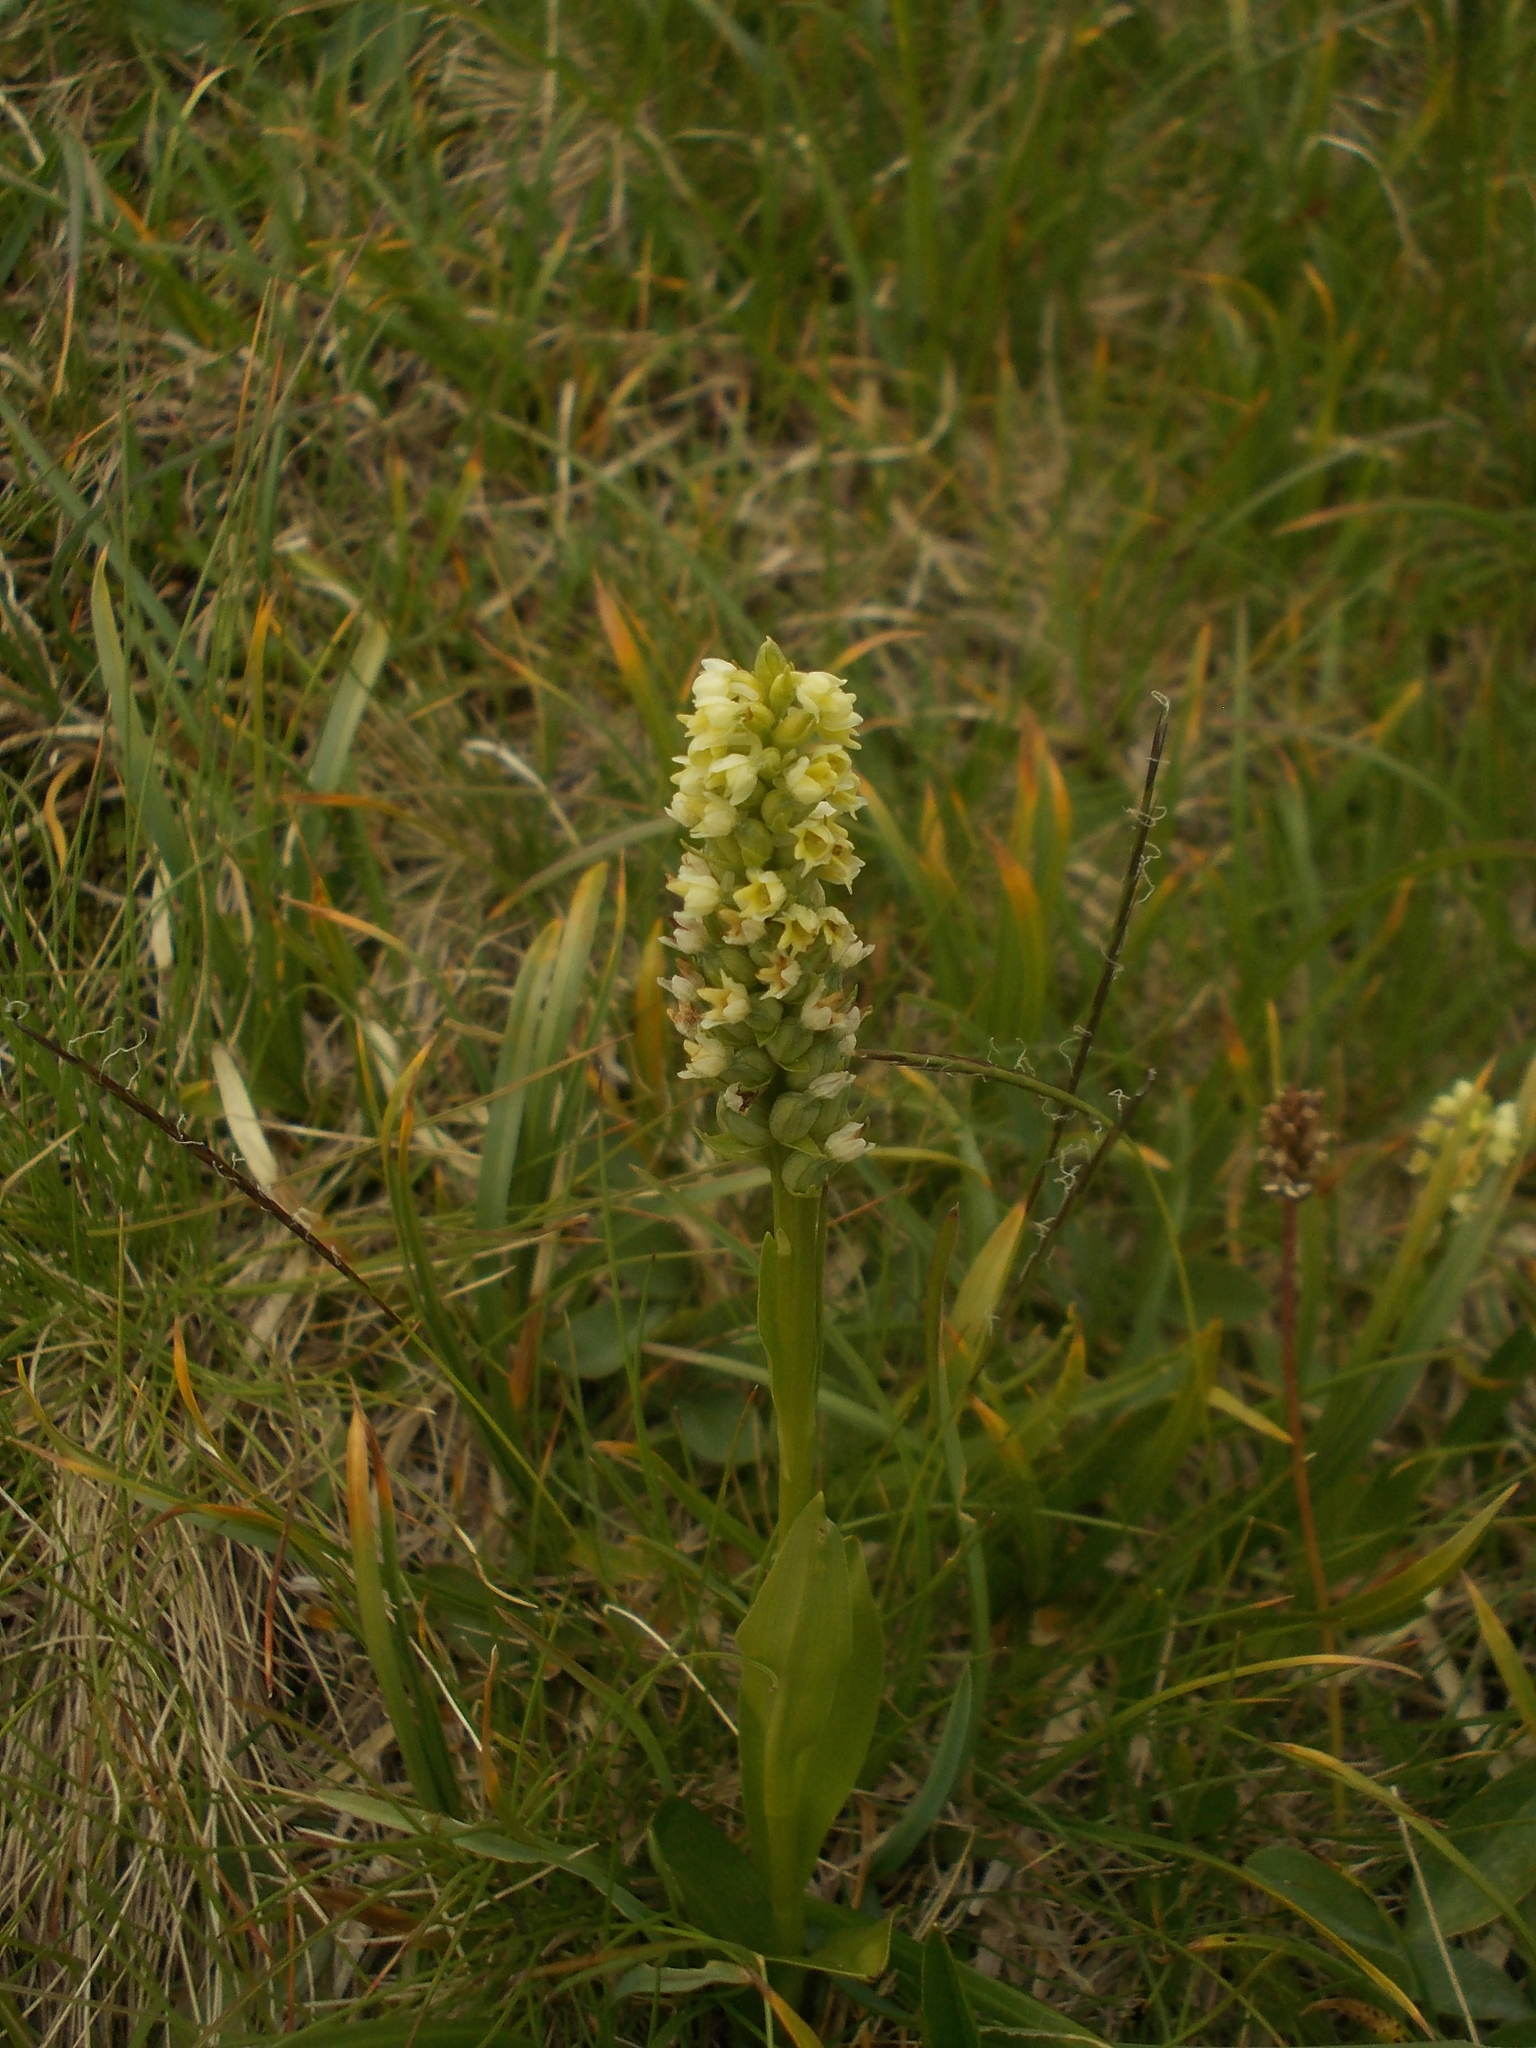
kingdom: Plantae
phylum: Tracheophyta
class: Liliopsida
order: Asparagales
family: Orchidaceae
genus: Pseudorchis
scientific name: Pseudorchis albida
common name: Small-white orchid
